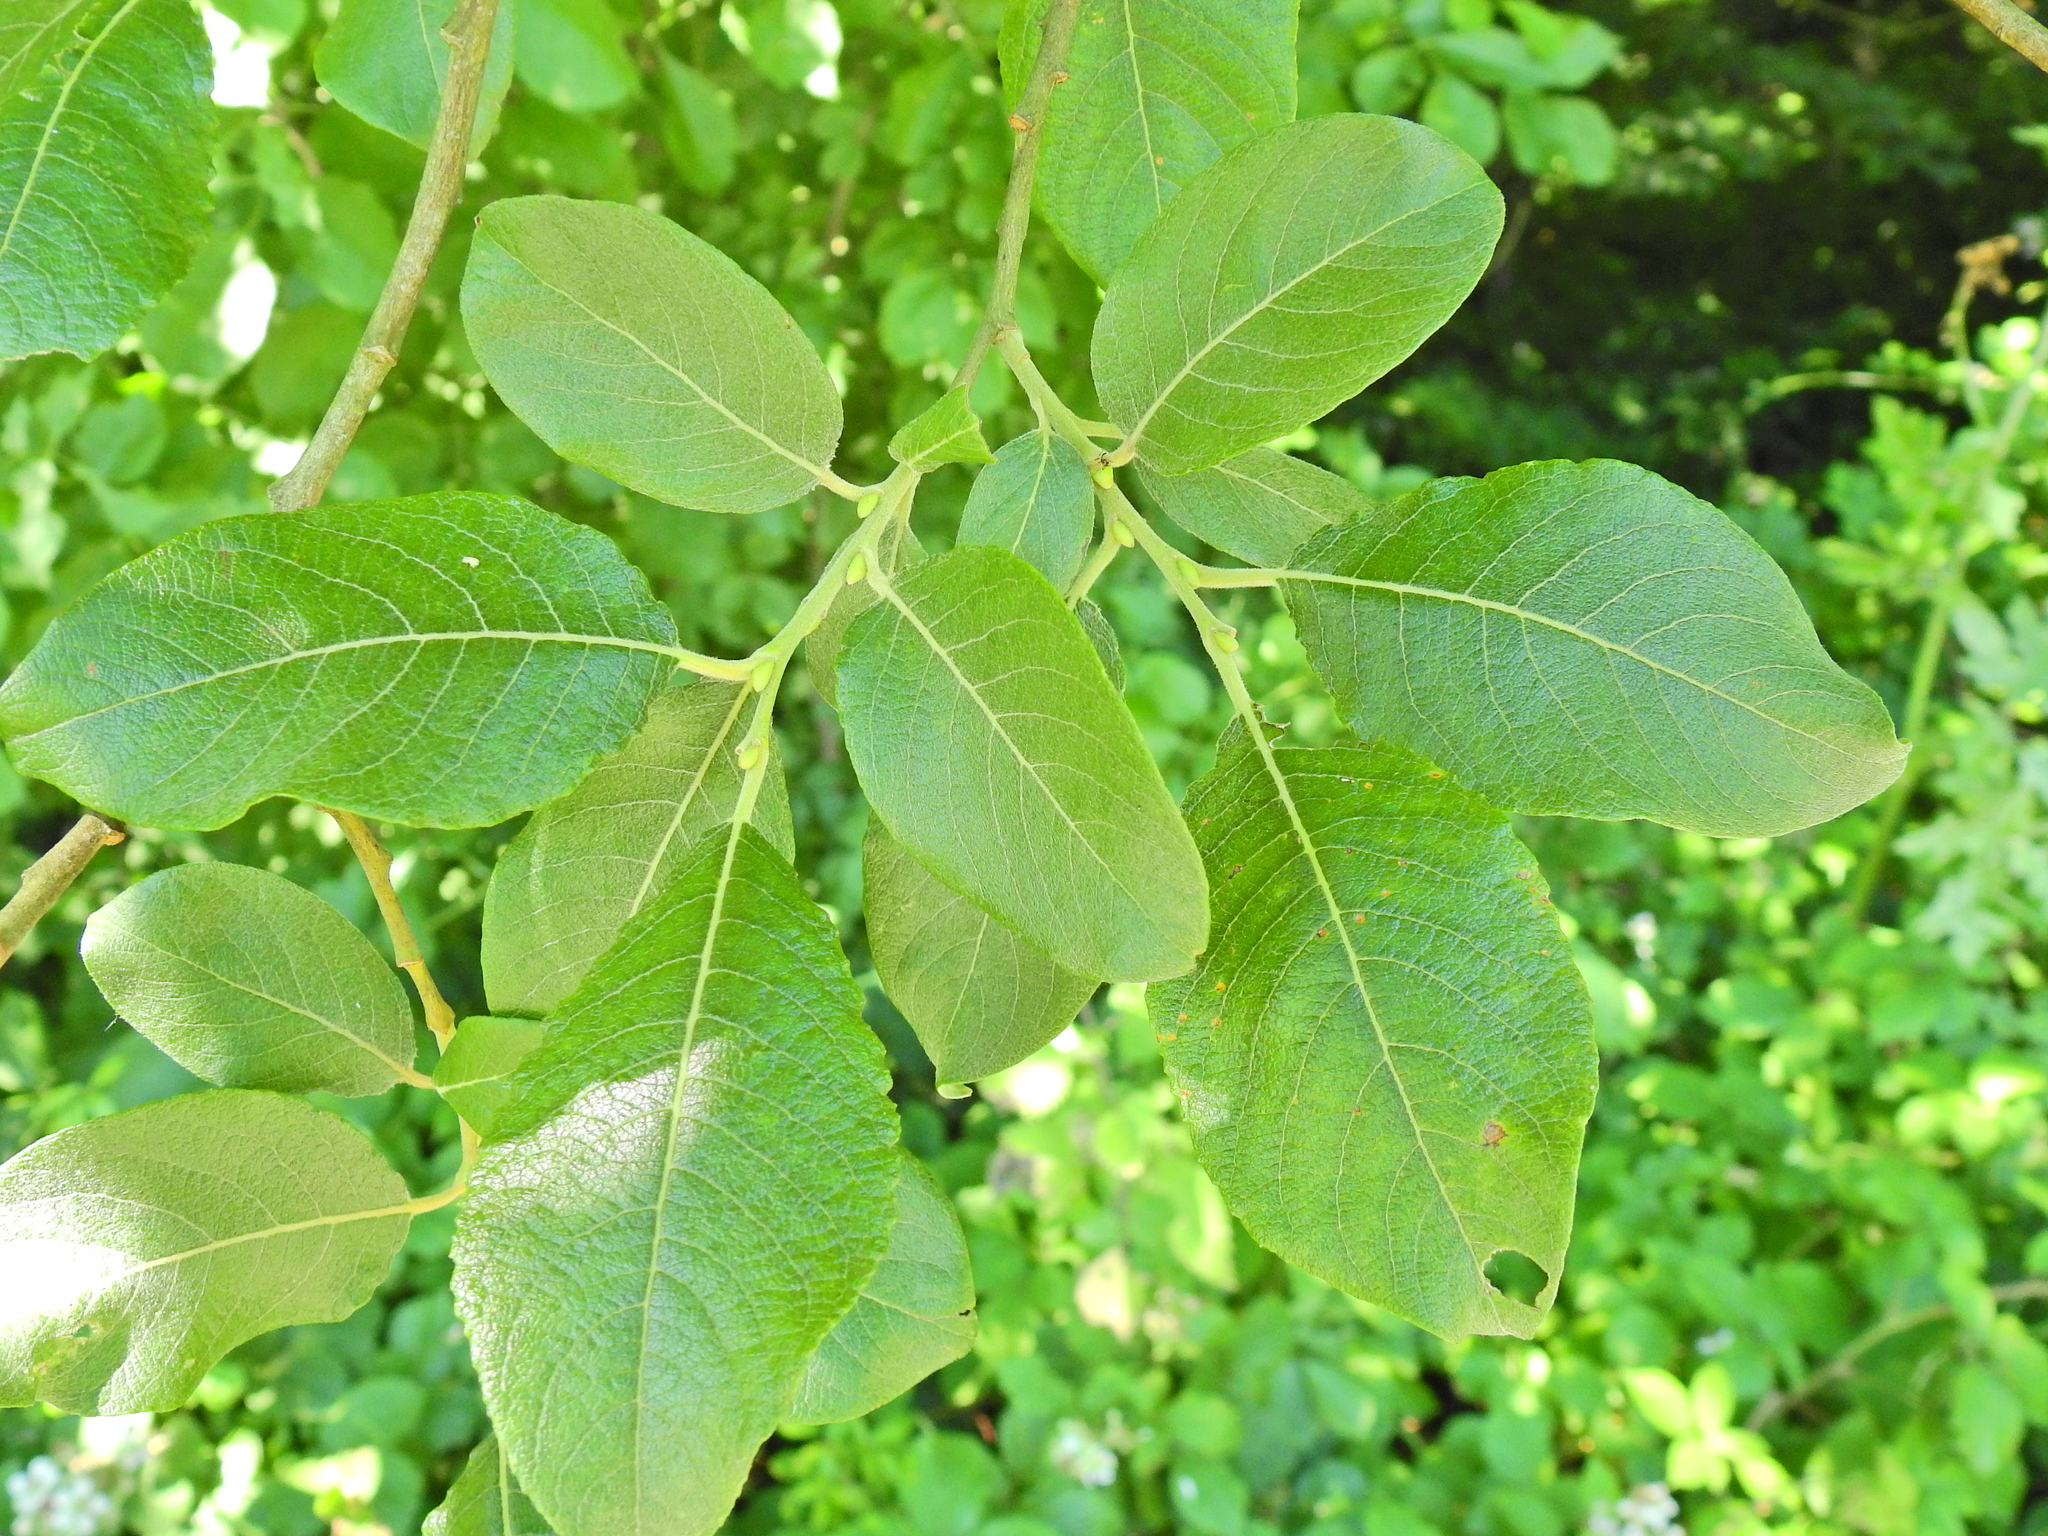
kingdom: Plantae
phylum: Tracheophyta
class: Magnoliopsida
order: Malpighiales
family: Salicaceae
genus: Salix
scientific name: Salix caprea
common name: Goat willow
